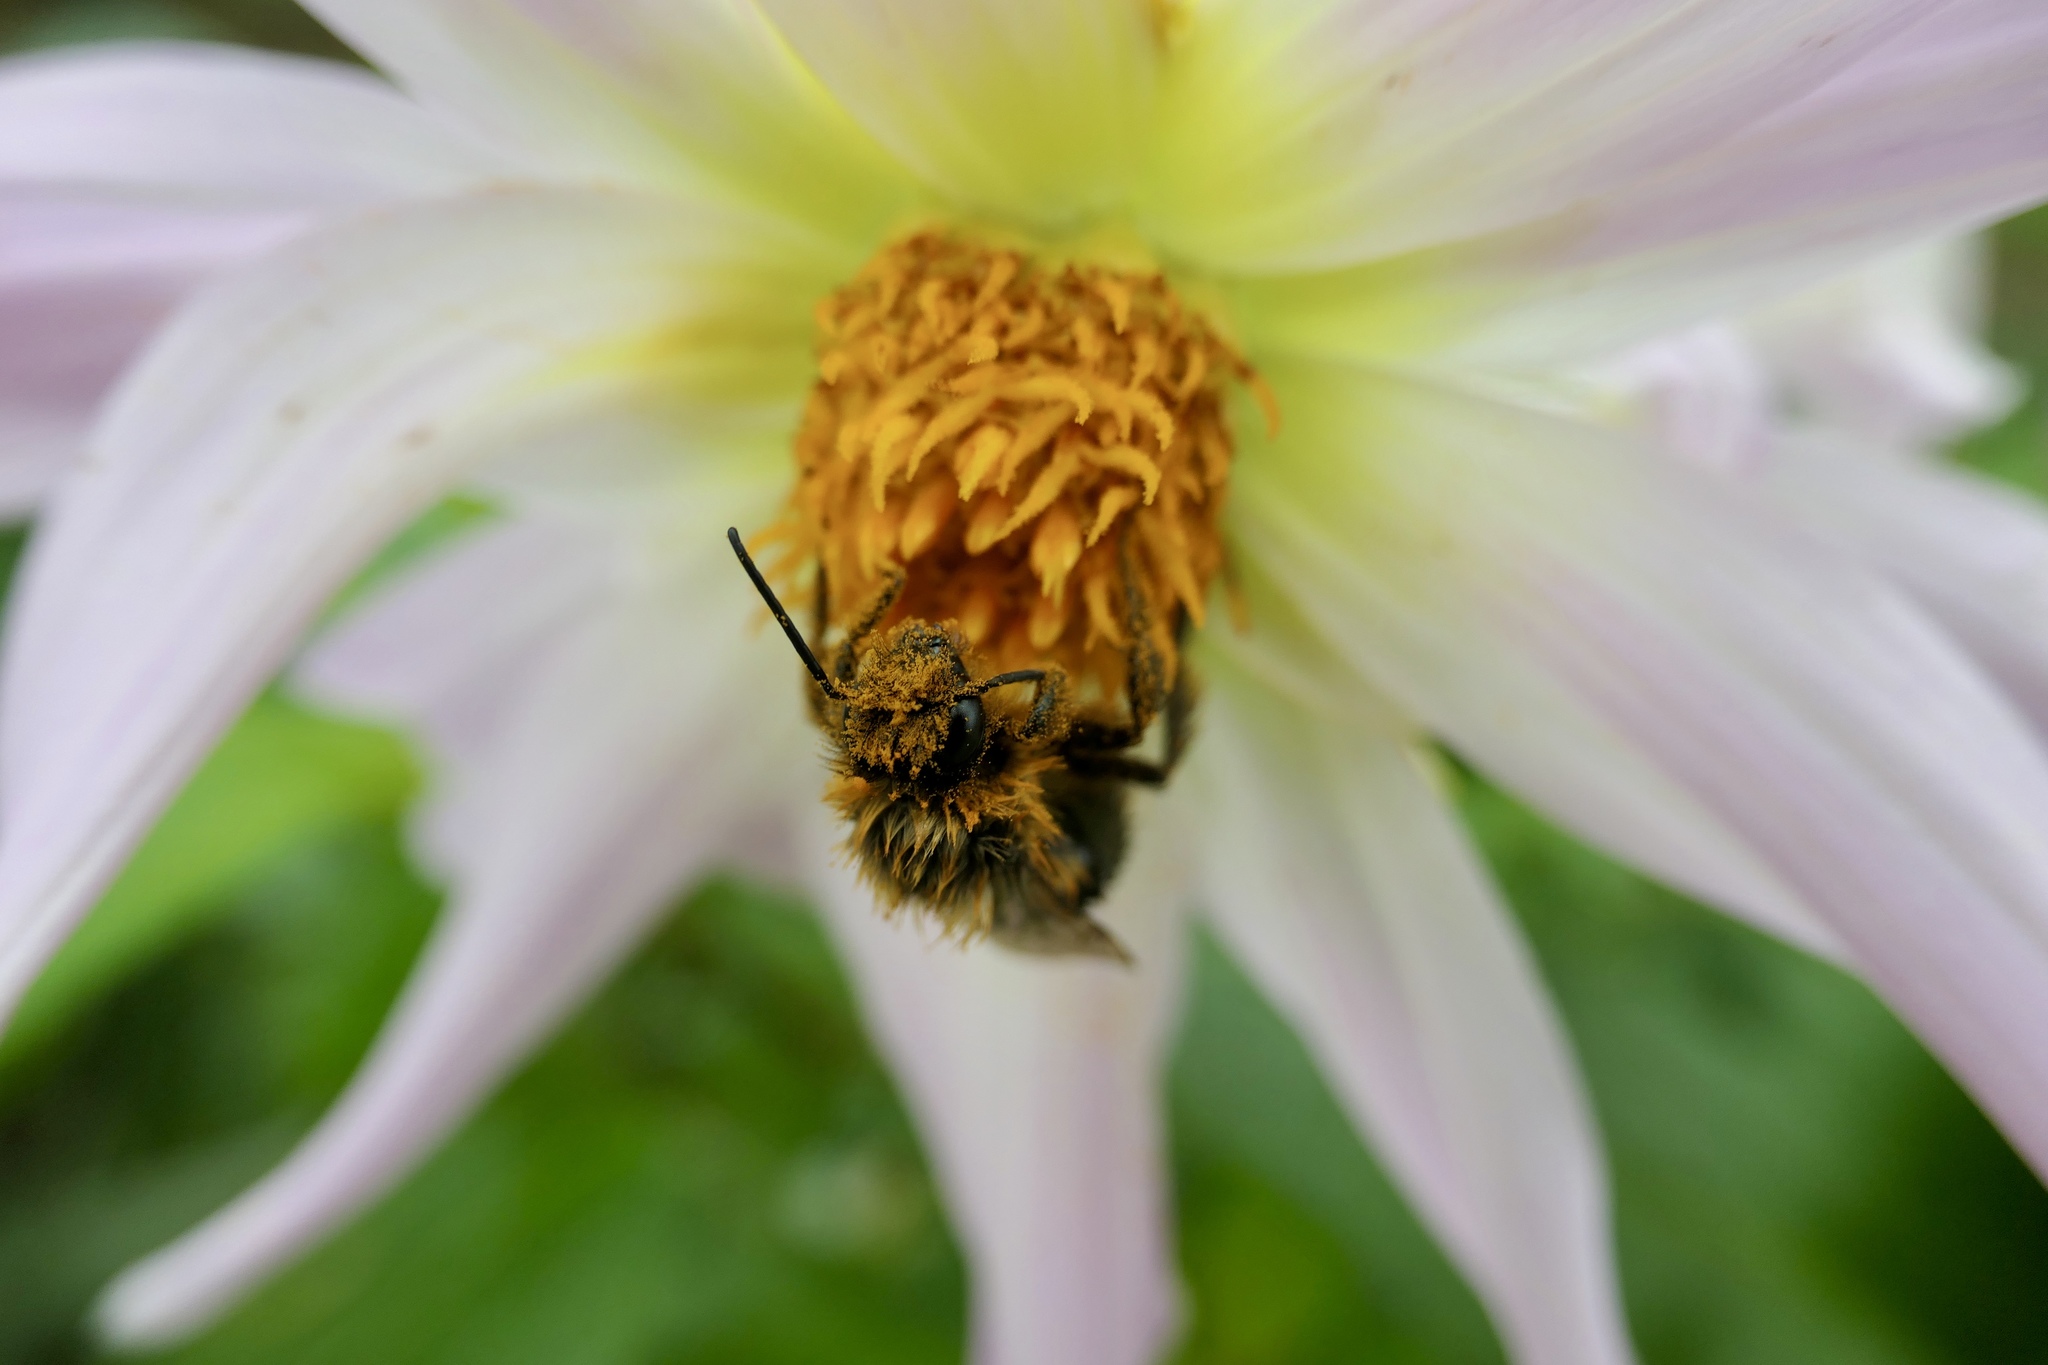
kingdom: Animalia
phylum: Arthropoda
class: Insecta
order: Hymenoptera
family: Apidae
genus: Bombus
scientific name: Bombus impatiens
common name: Common eastern bumble bee
